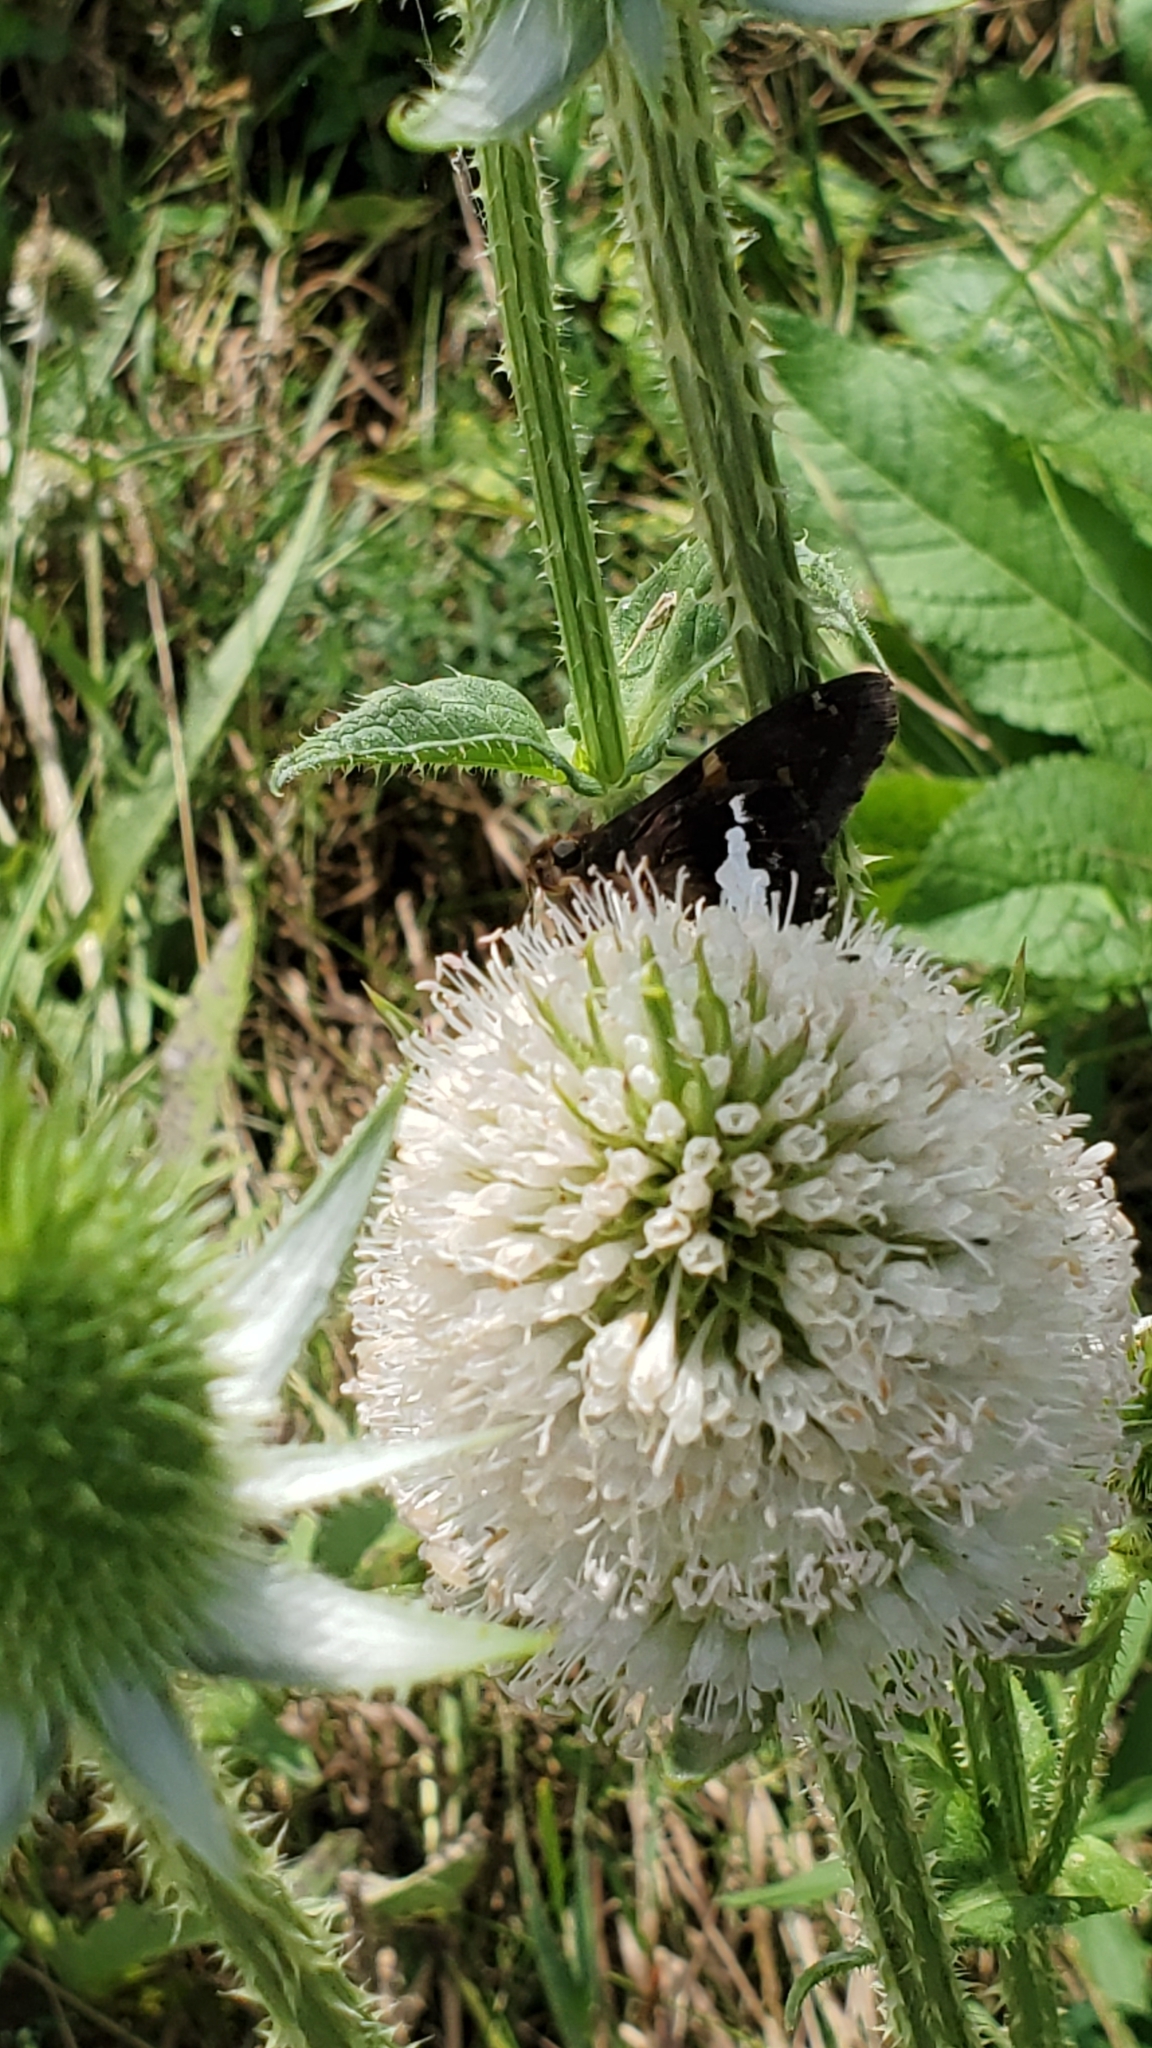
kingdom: Animalia
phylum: Arthropoda
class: Insecta
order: Lepidoptera
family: Hesperiidae
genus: Epargyreus
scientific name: Epargyreus clarus
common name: Silver-spotted skipper
